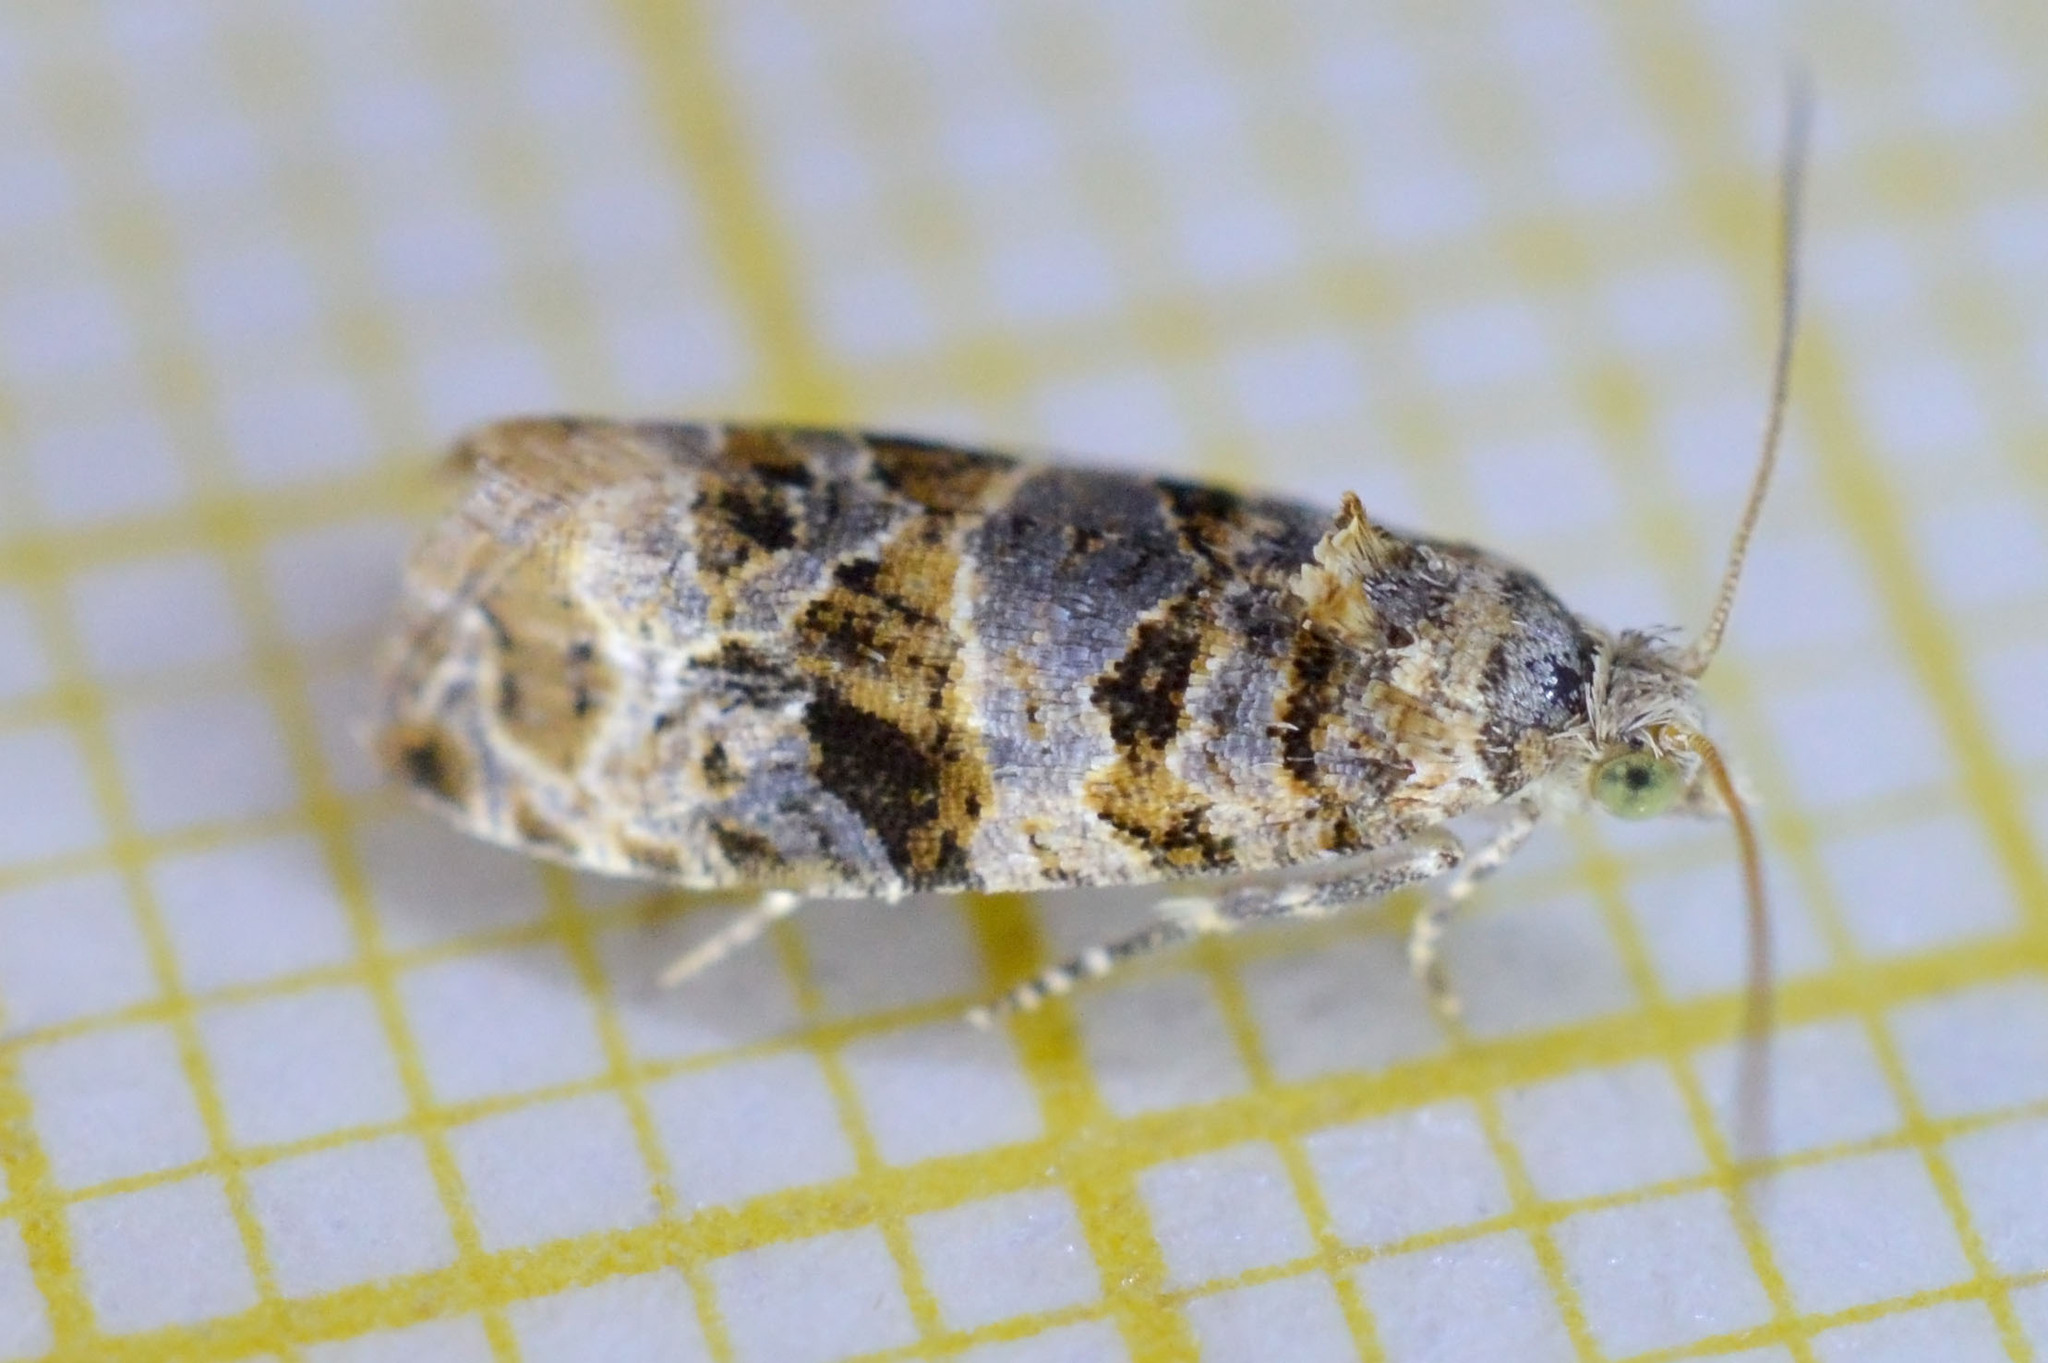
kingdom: Animalia
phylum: Arthropoda
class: Insecta
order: Lepidoptera
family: Tortricidae
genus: Lobesia
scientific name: Lobesia botrana
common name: European vine moth
